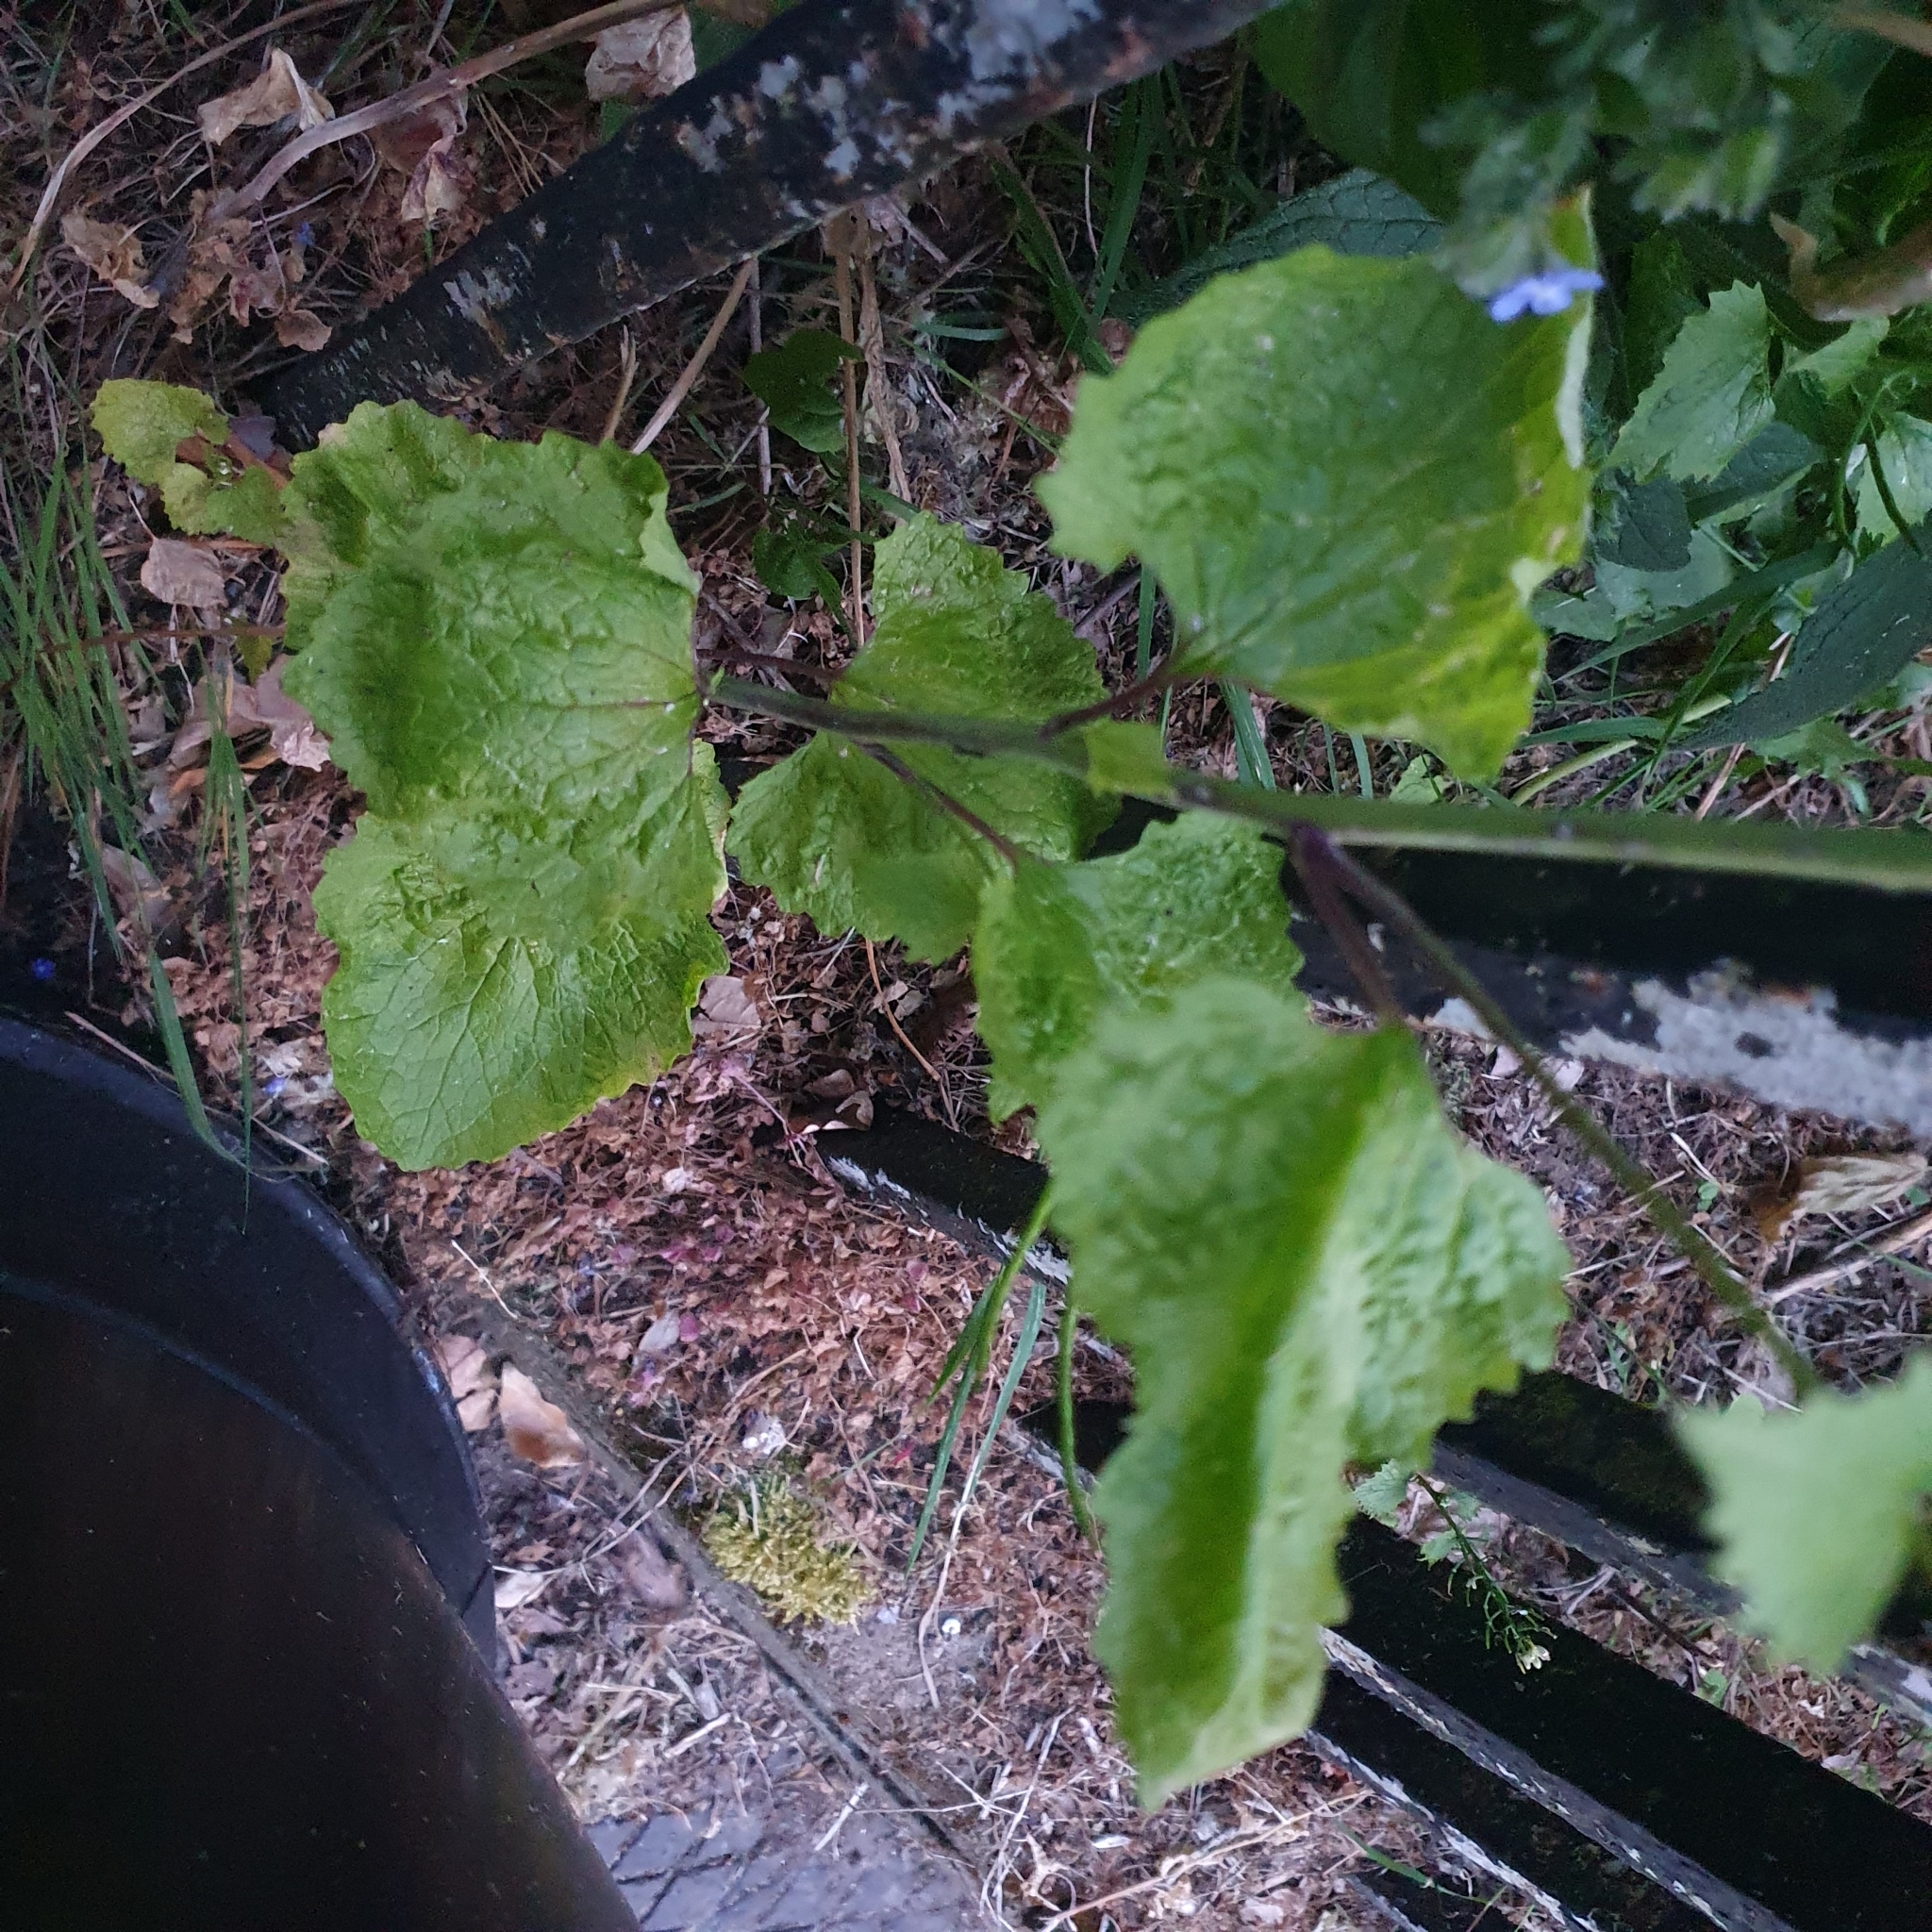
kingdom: Plantae
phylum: Tracheophyta
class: Magnoliopsida
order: Brassicales
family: Brassicaceae
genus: Alliaria
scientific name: Alliaria petiolata
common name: Garlic mustard
